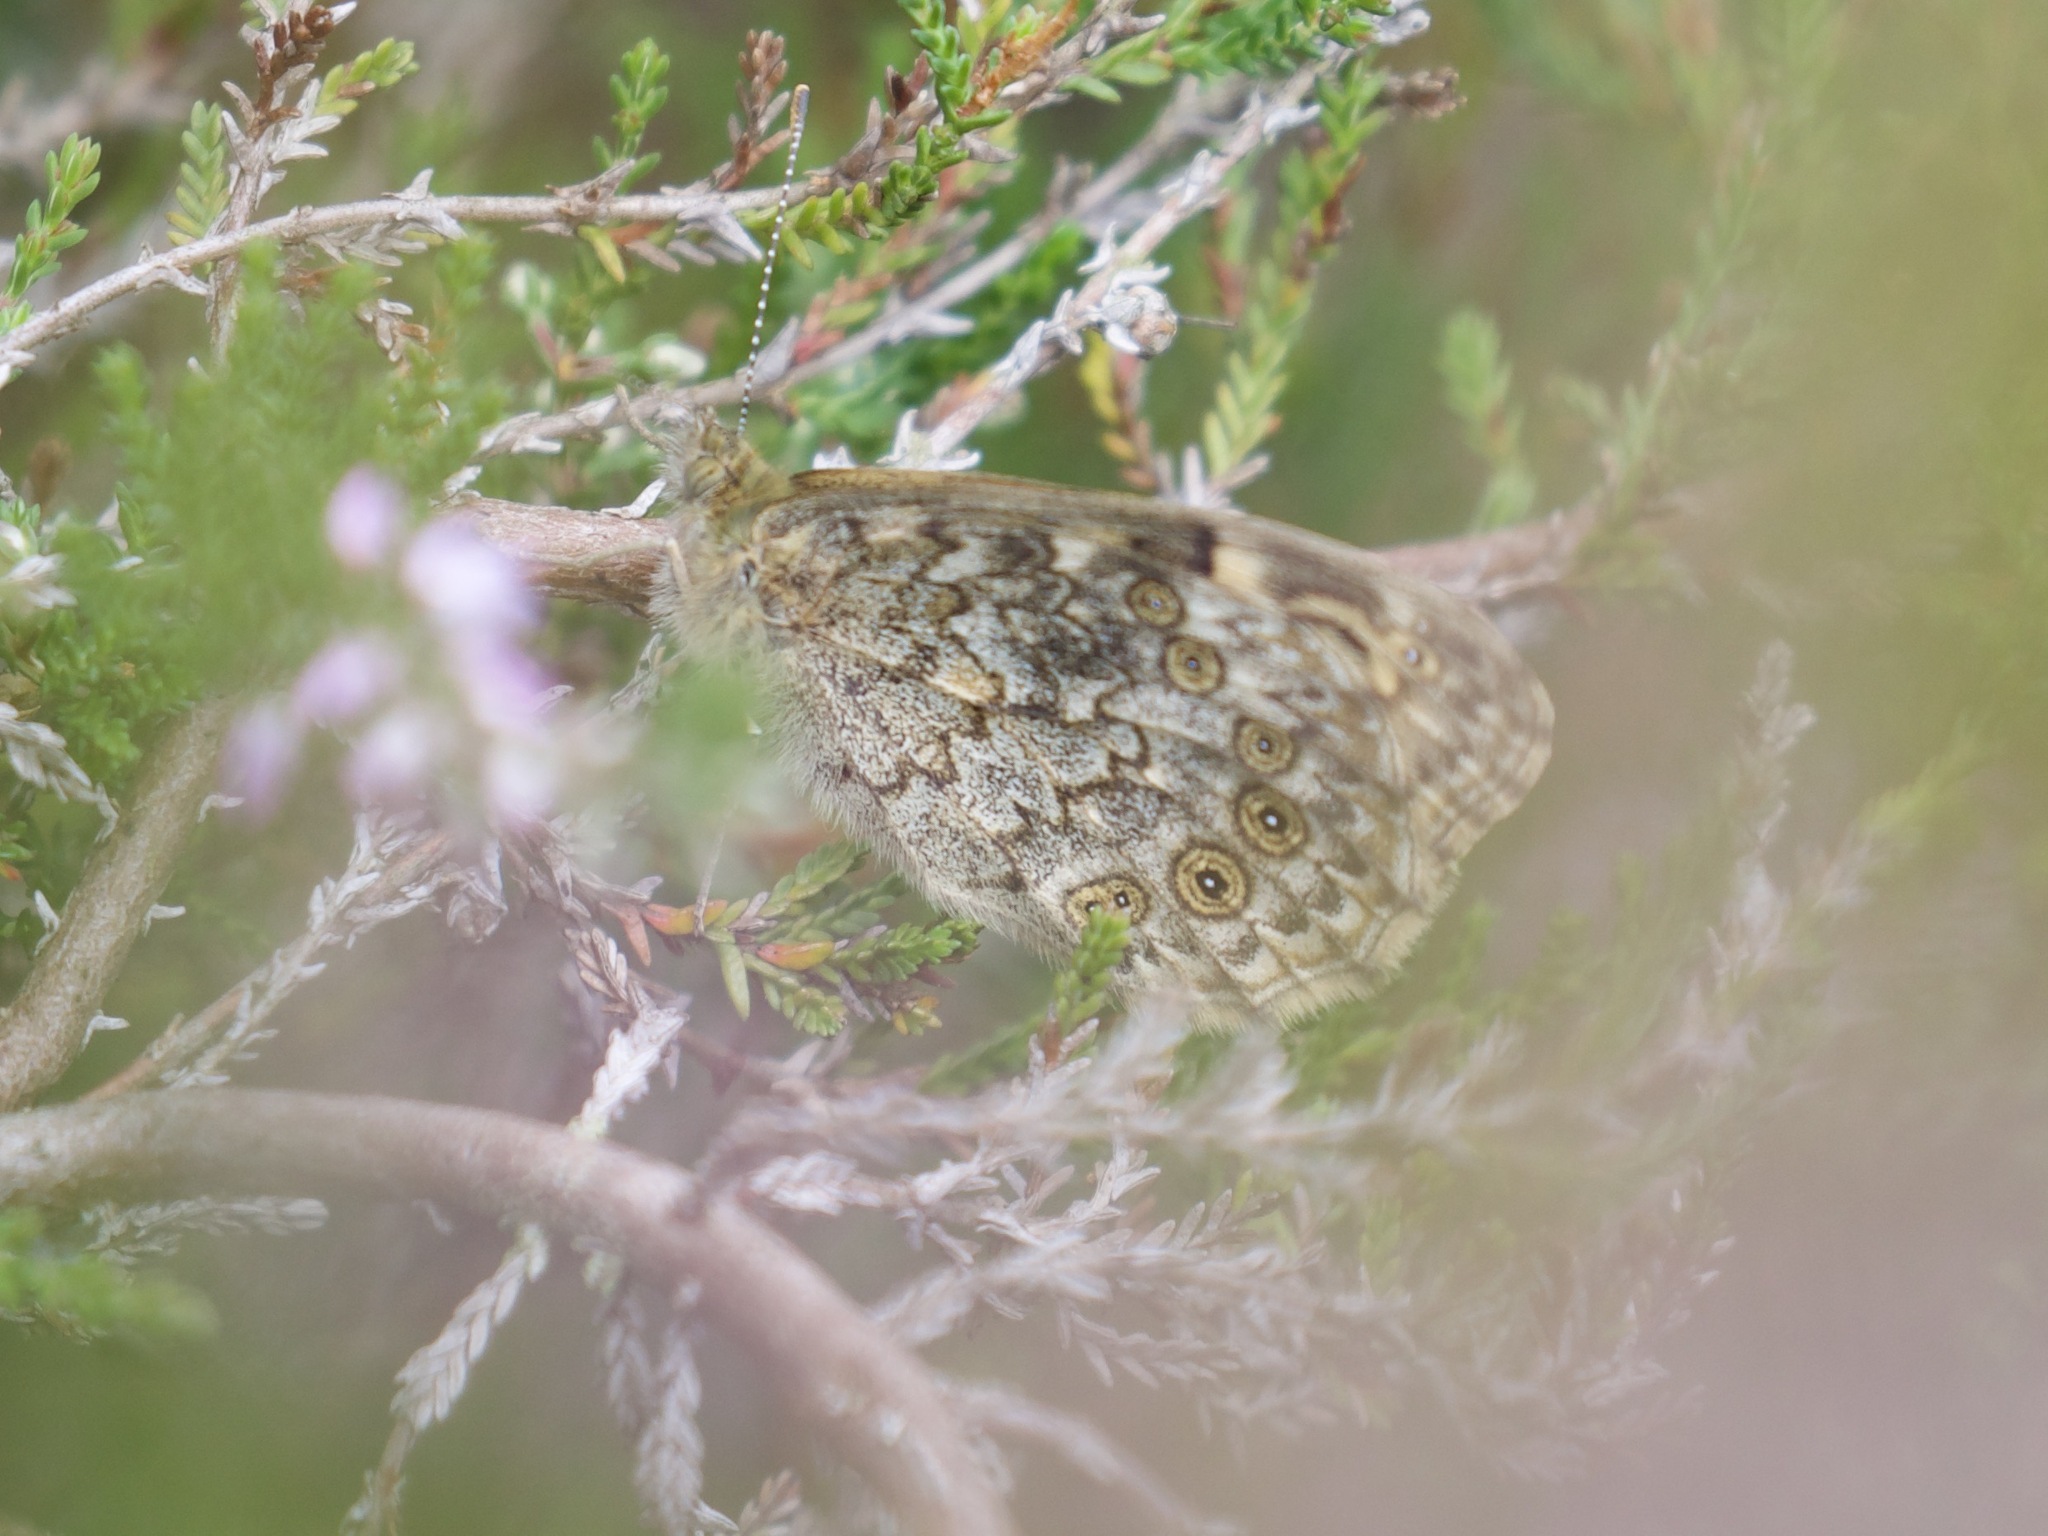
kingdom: Animalia
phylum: Arthropoda
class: Insecta
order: Lepidoptera
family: Nymphalidae
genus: Pararge
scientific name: Pararge Lasiommata megera
